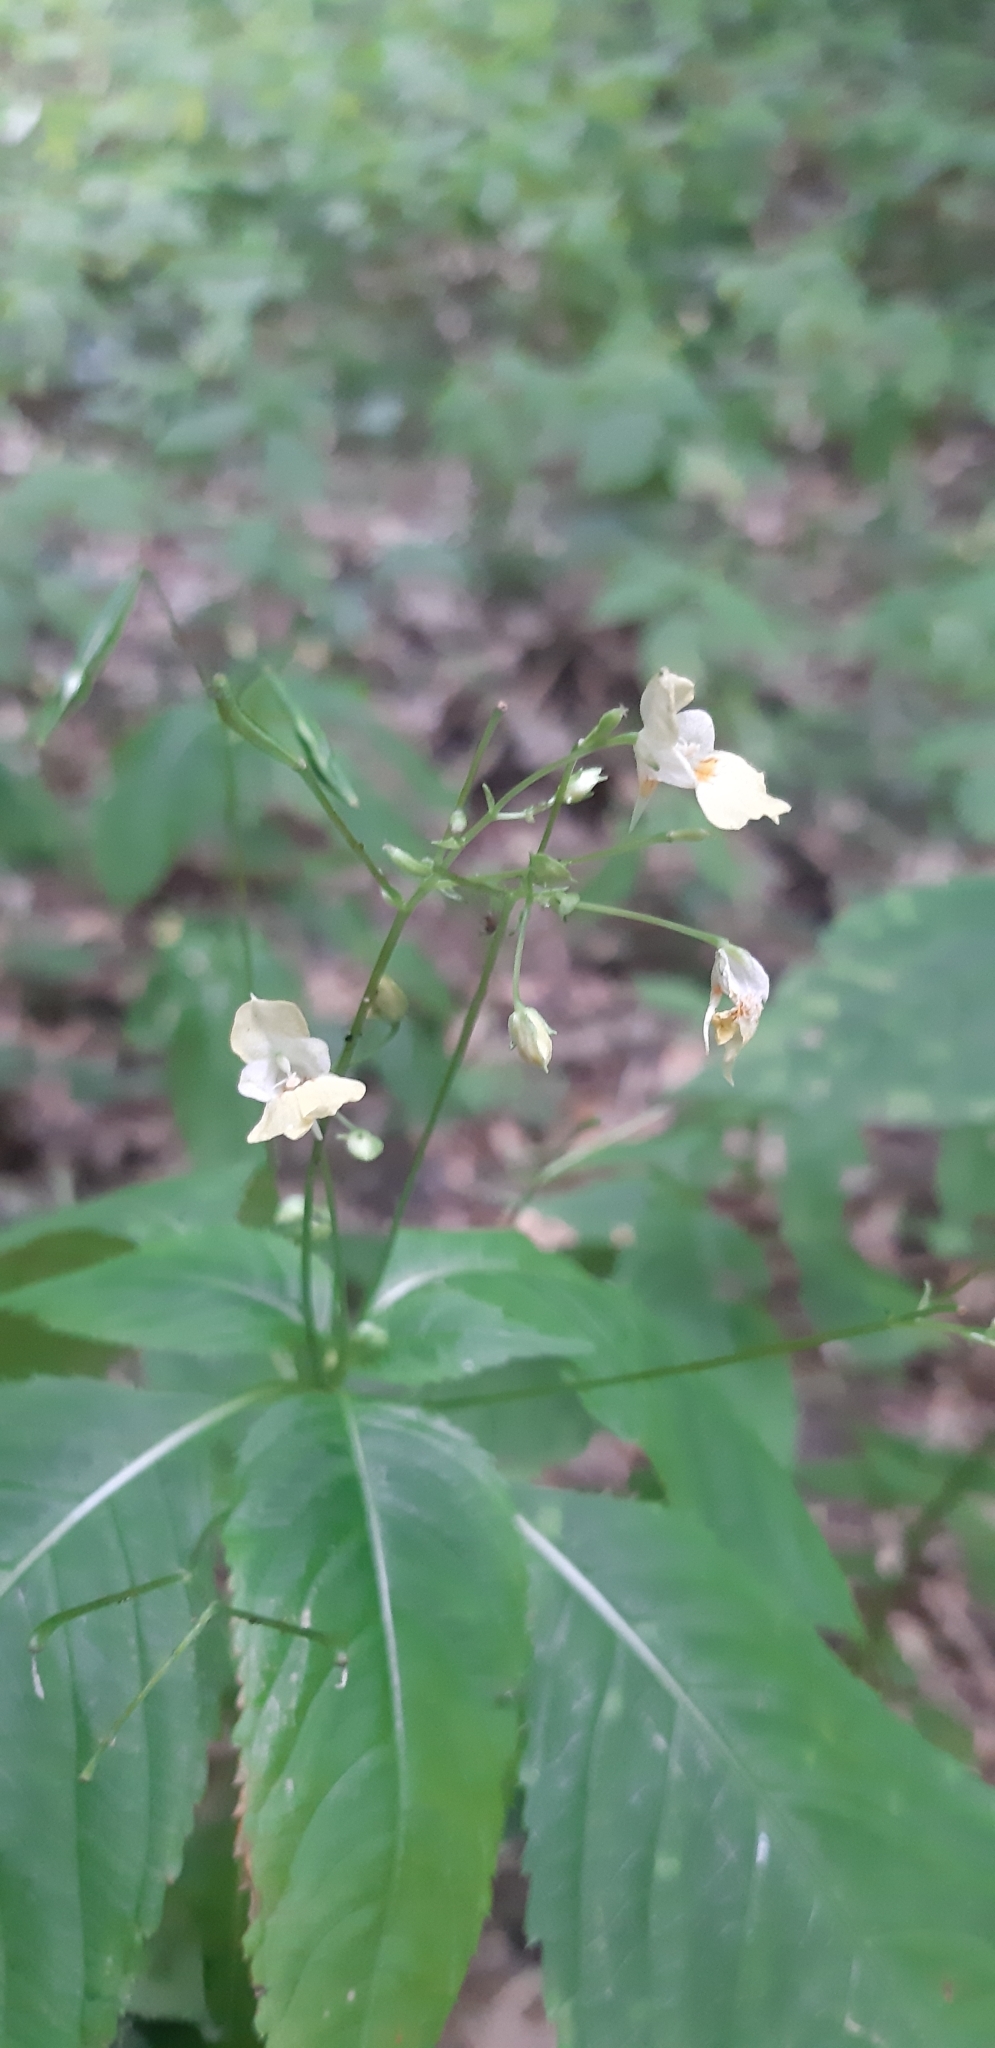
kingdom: Plantae
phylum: Tracheophyta
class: Magnoliopsida
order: Ericales
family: Balsaminaceae
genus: Impatiens
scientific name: Impatiens parviflora
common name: Small balsam
